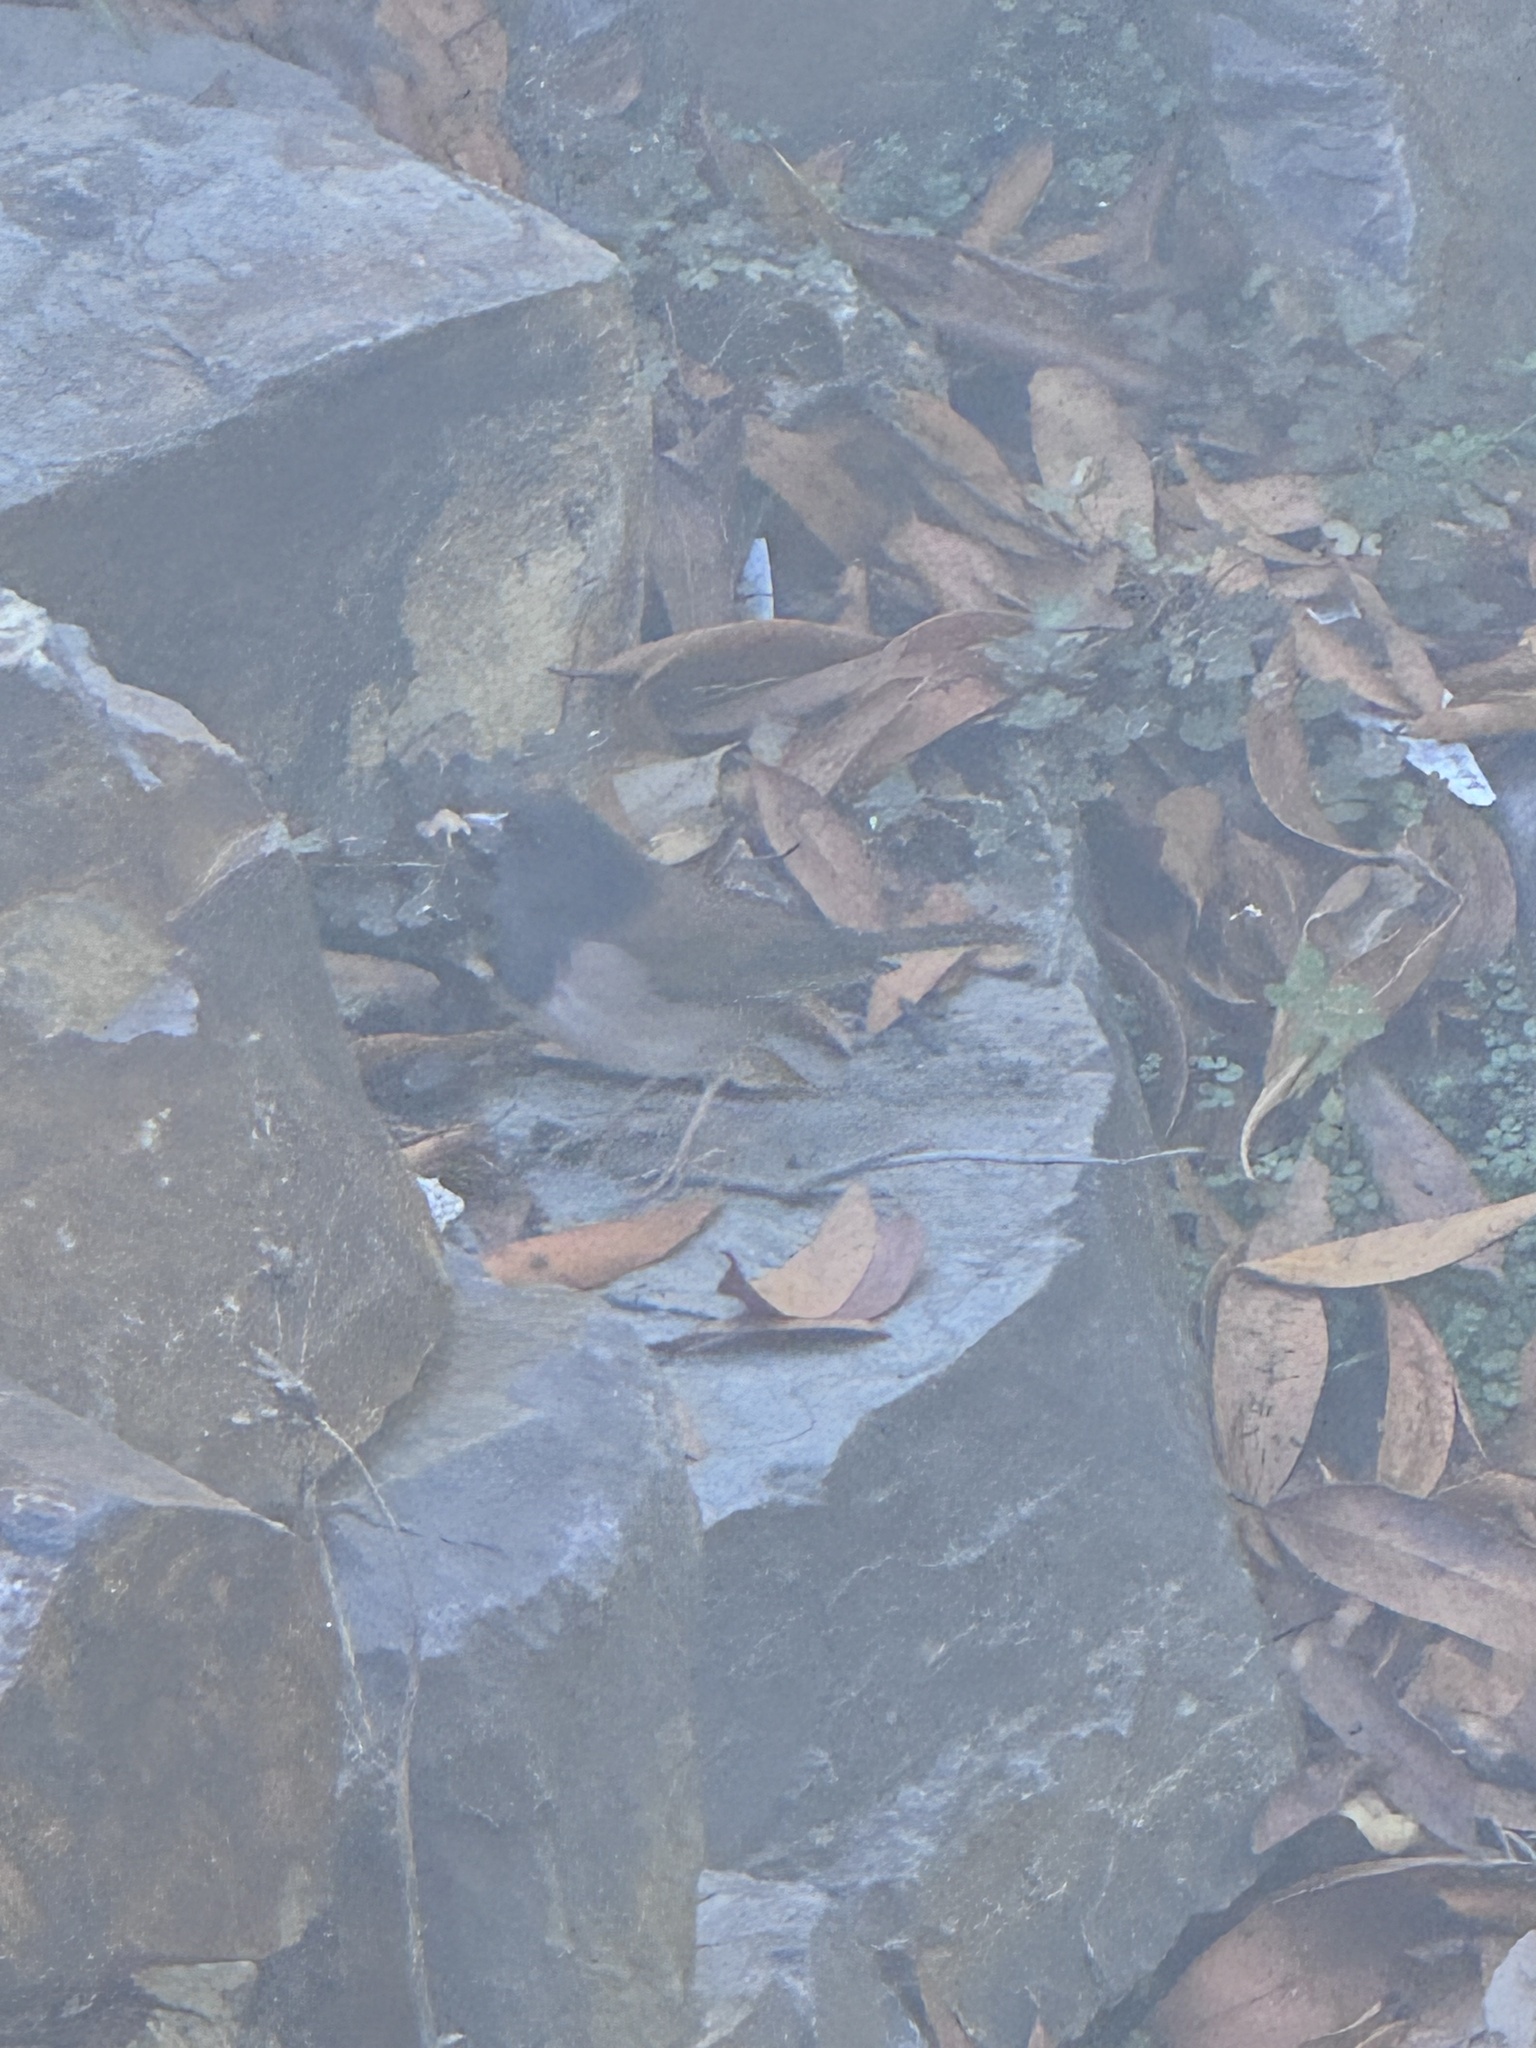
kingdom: Animalia
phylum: Chordata
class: Aves
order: Passeriformes
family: Passerellidae
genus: Junco
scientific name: Junco hyemalis
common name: Dark-eyed junco
